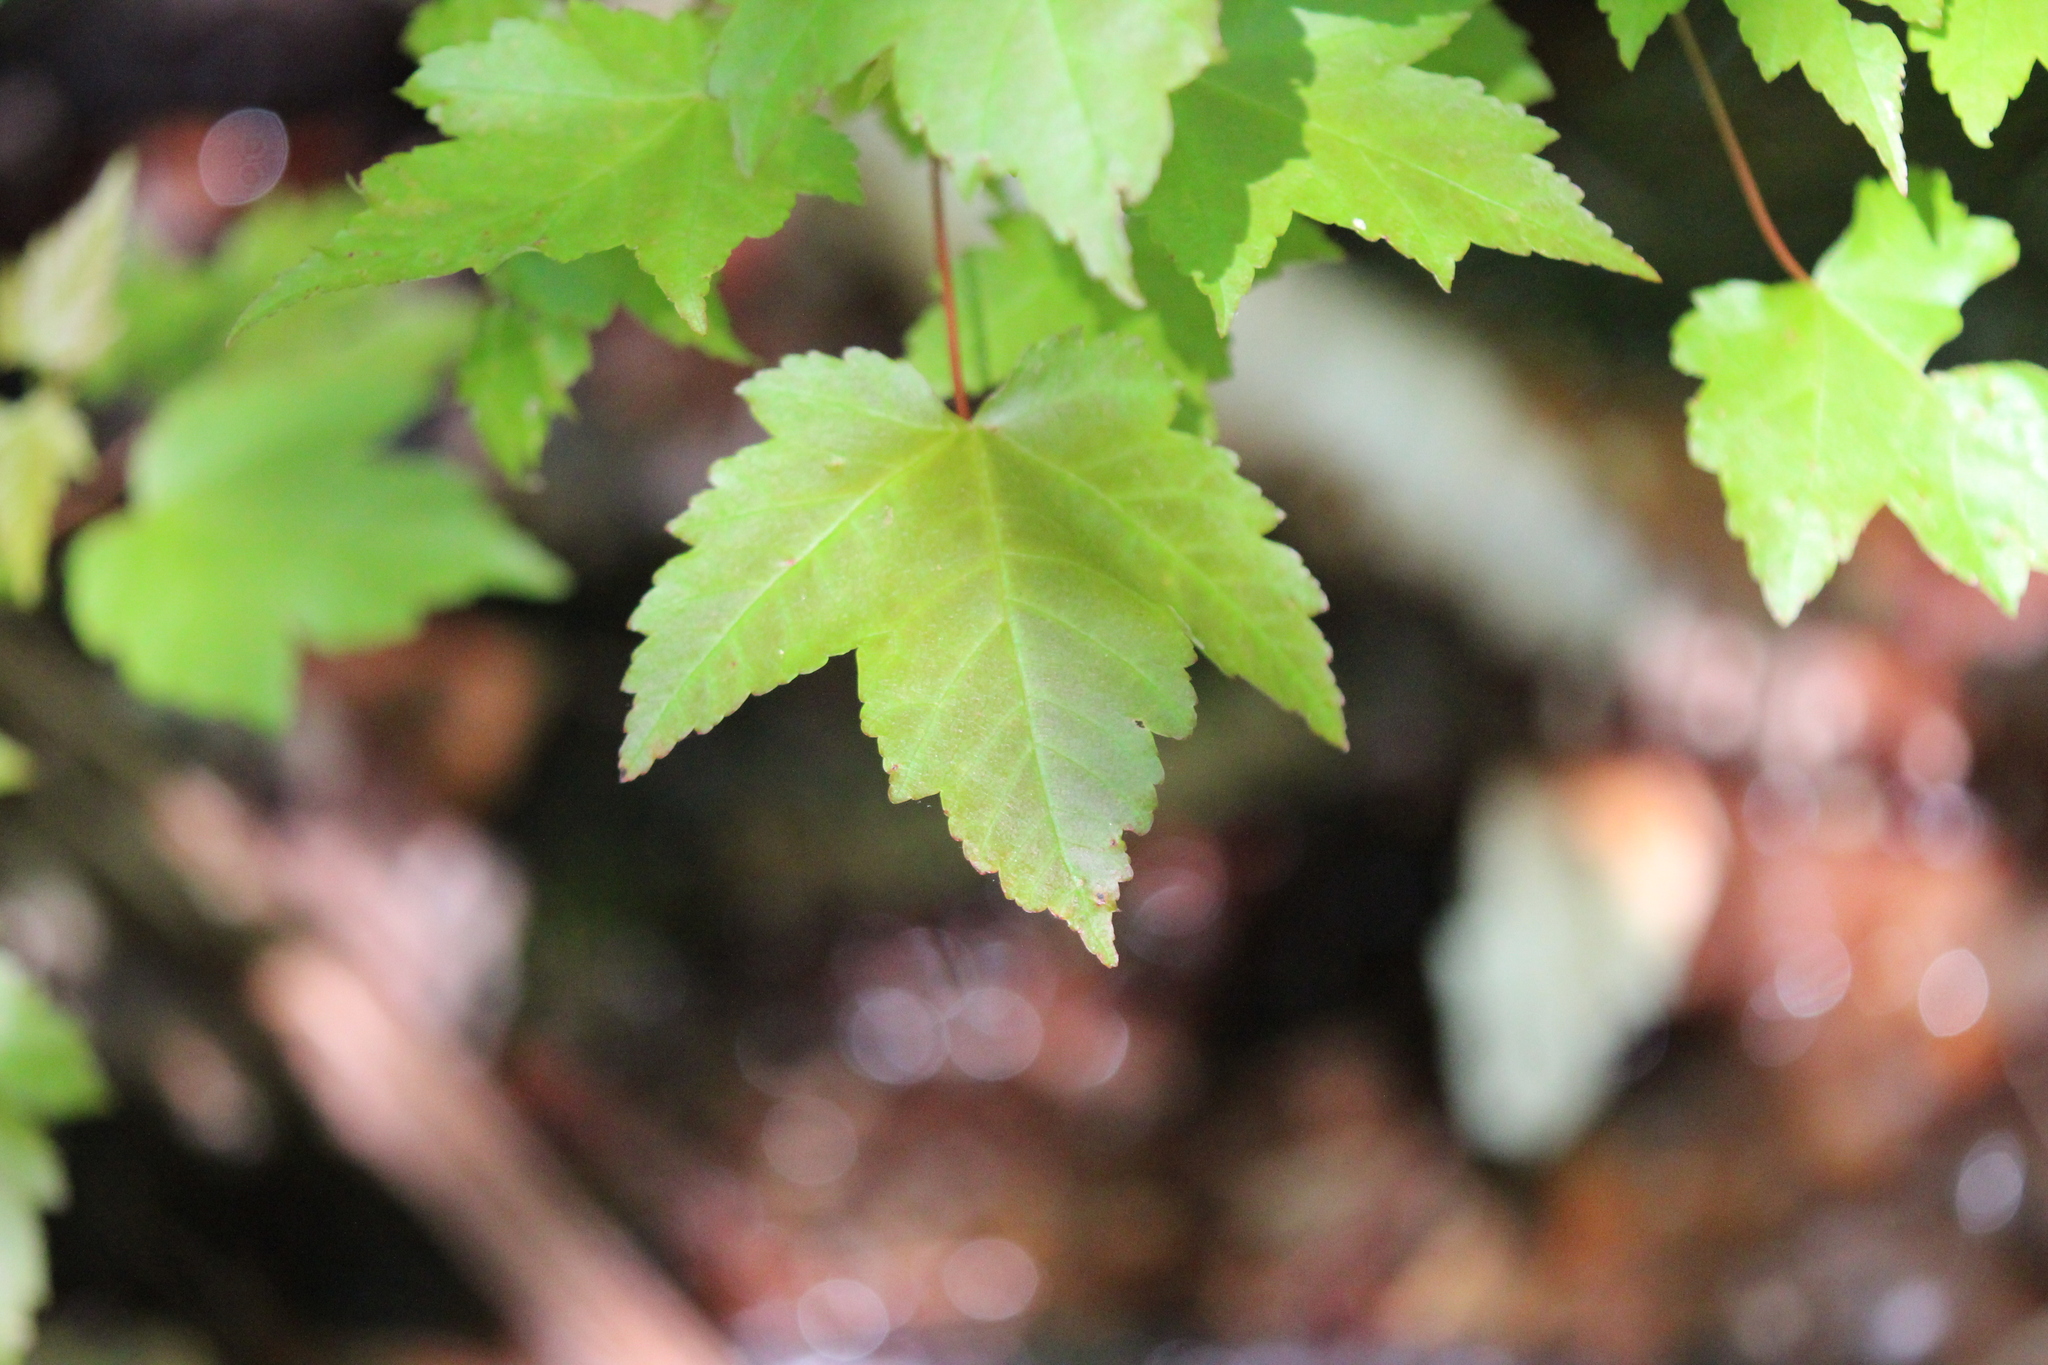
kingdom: Plantae
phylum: Tracheophyta
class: Magnoliopsida
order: Sapindales
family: Sapindaceae
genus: Acer
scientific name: Acer rubrum
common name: Red maple
